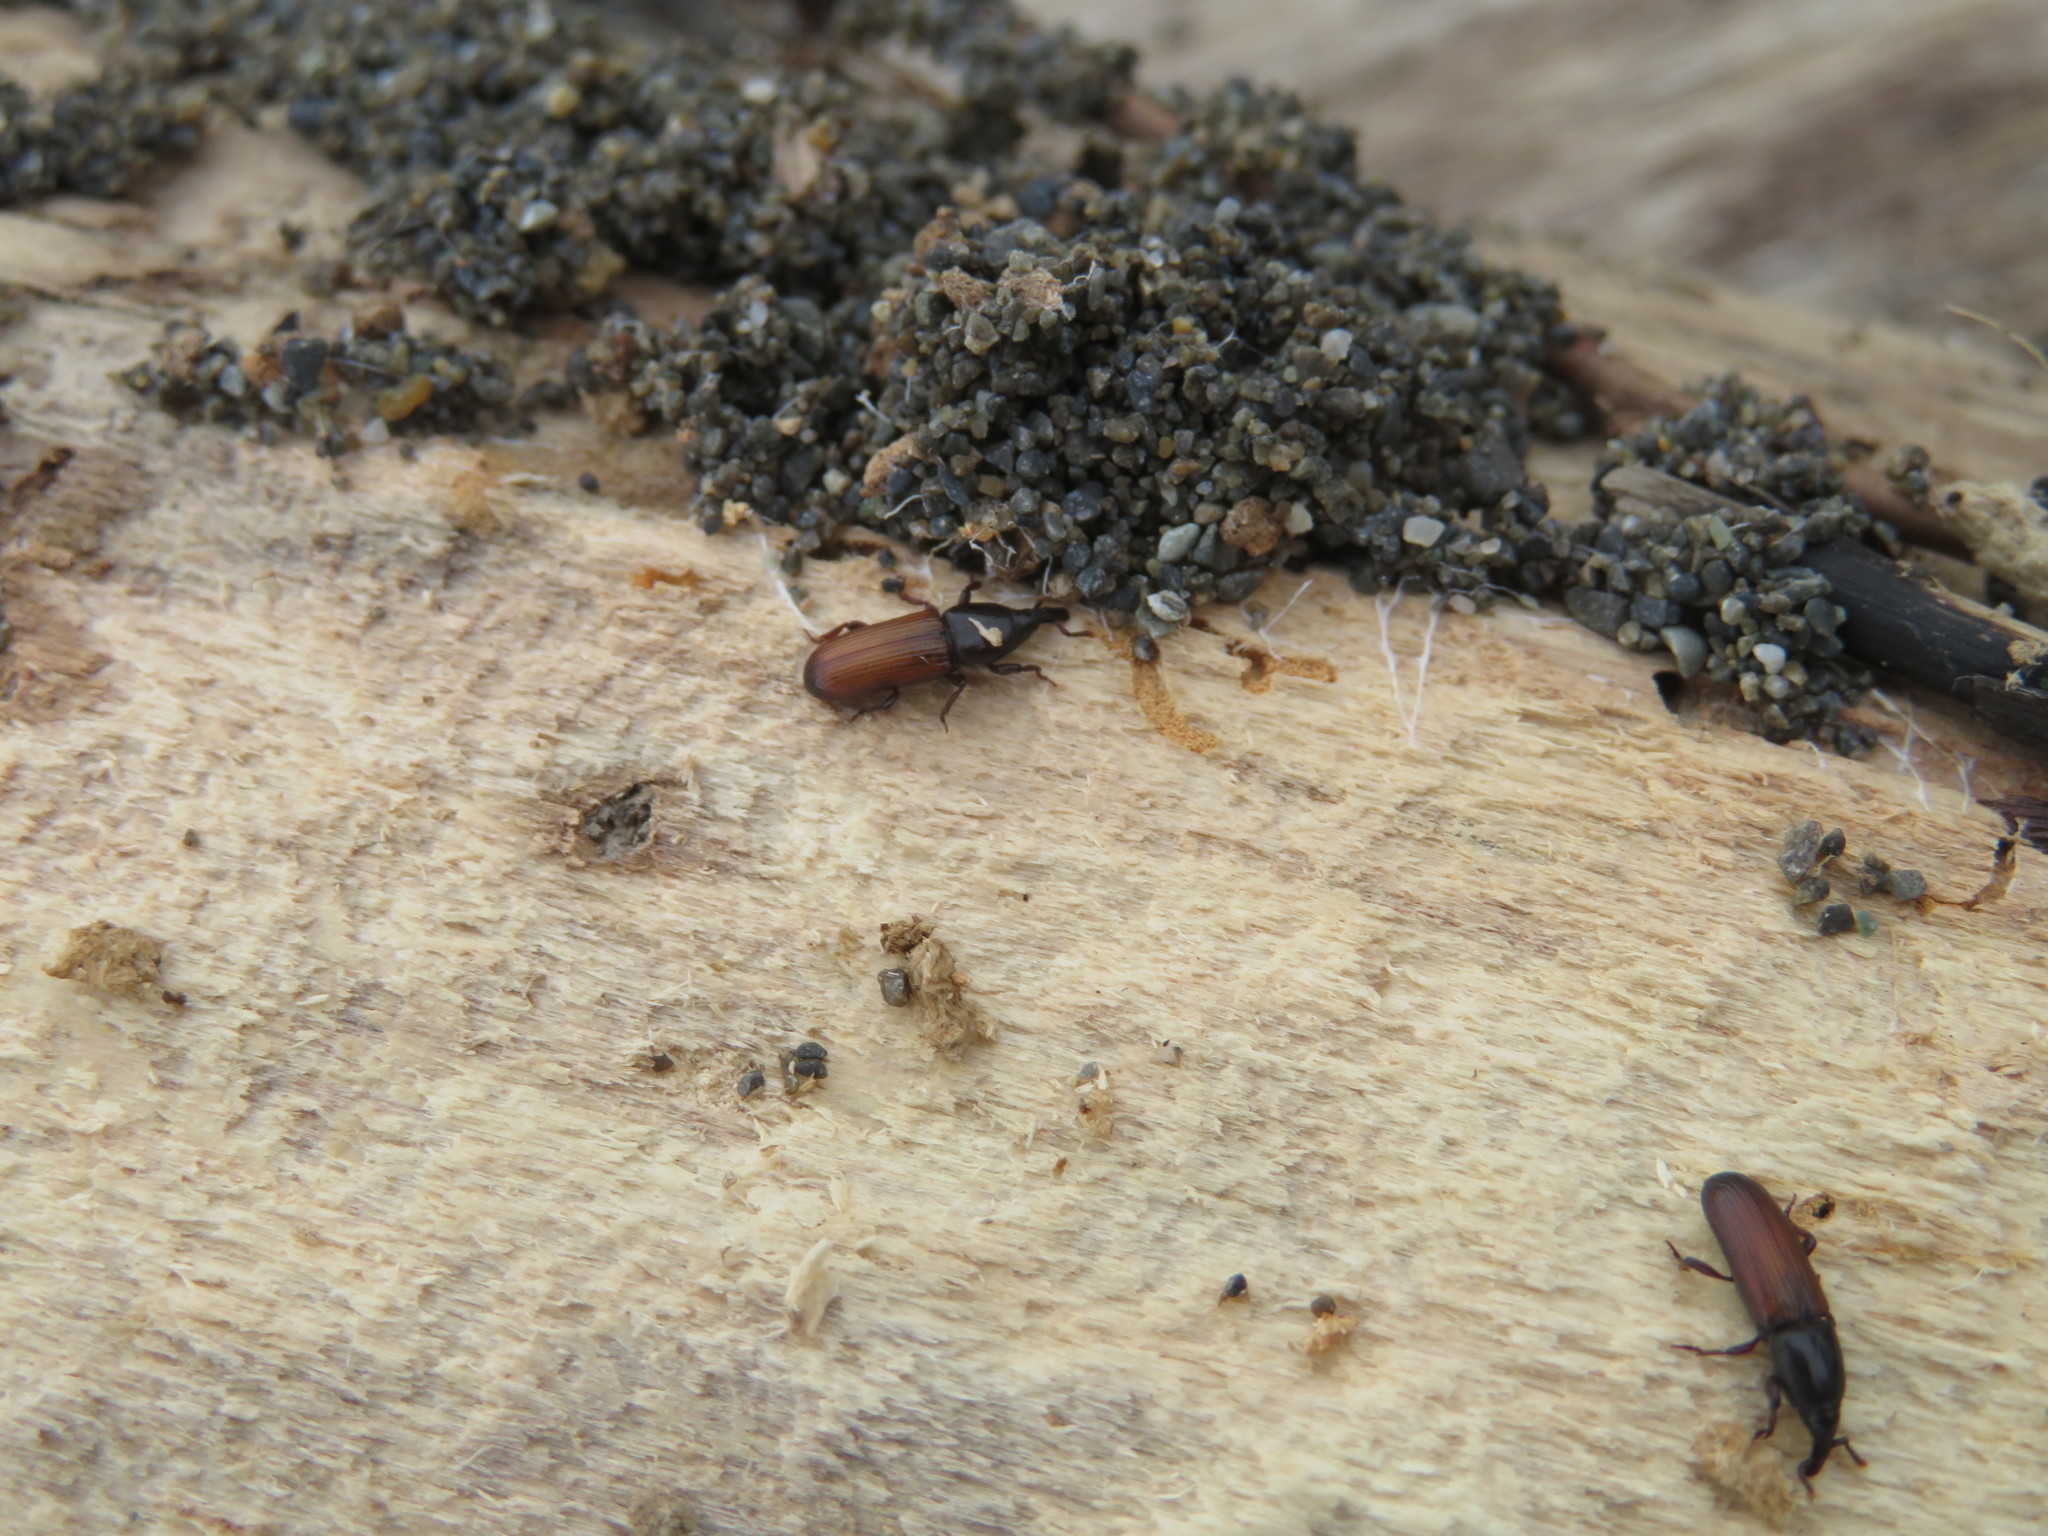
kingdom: Animalia
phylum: Arthropoda
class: Insecta
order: Coleoptera
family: Curculionidae
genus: Mesites
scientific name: Mesites pallidipennis
